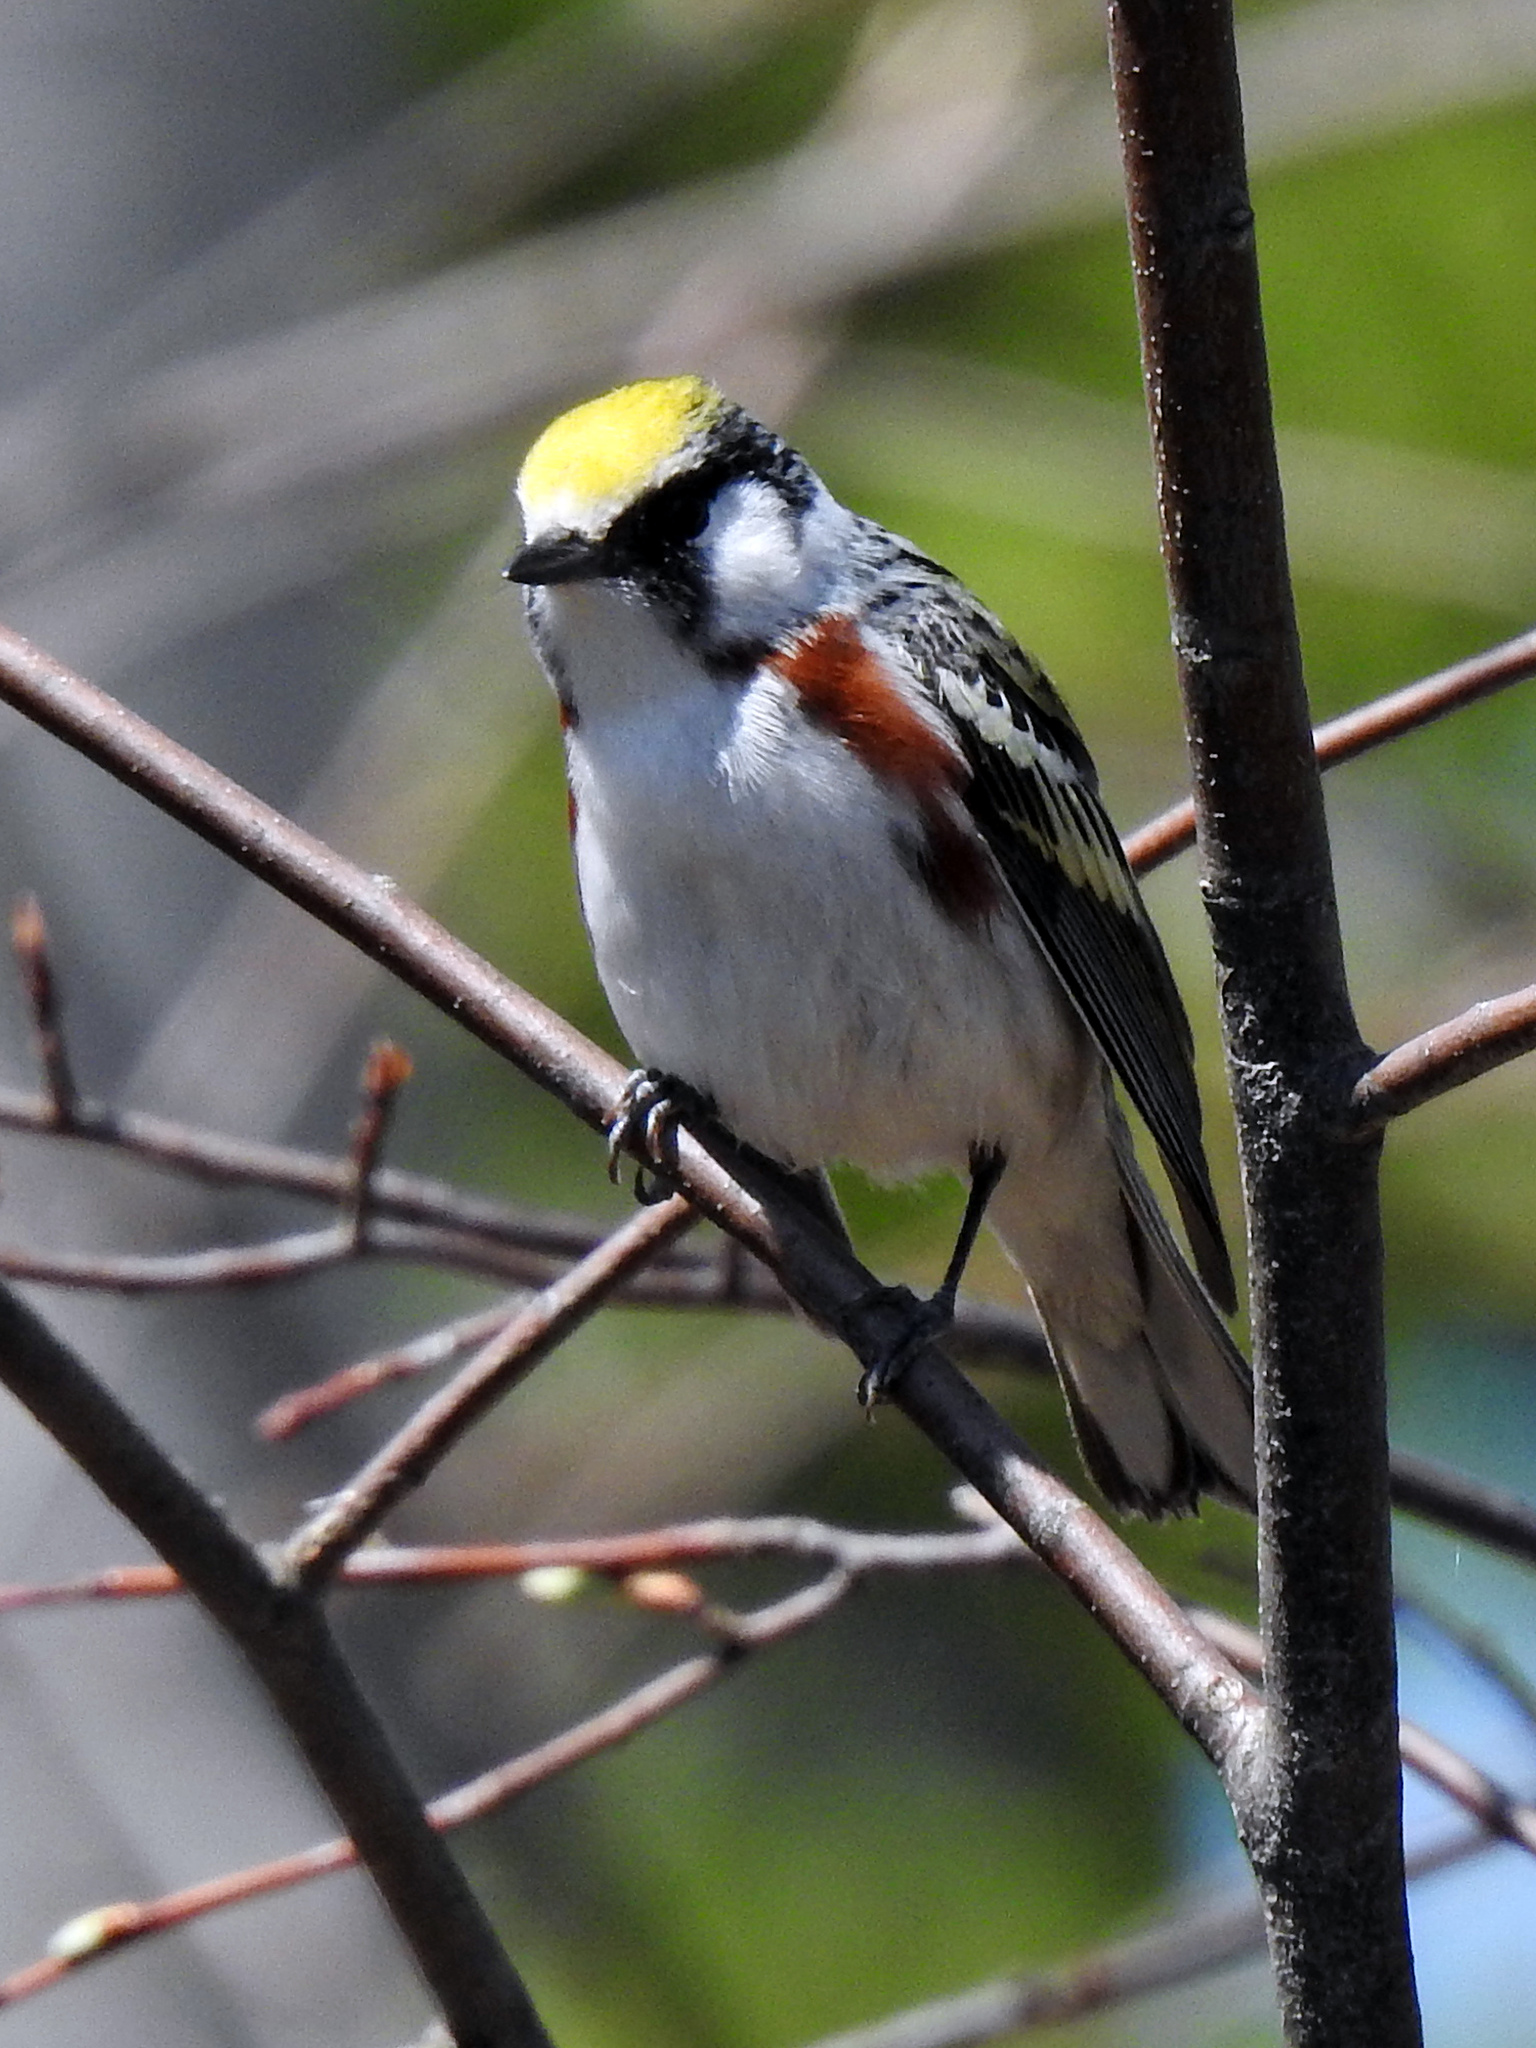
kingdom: Animalia
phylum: Chordata
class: Aves
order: Passeriformes
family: Parulidae
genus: Setophaga
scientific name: Setophaga pensylvanica
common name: Chestnut-sided warbler
